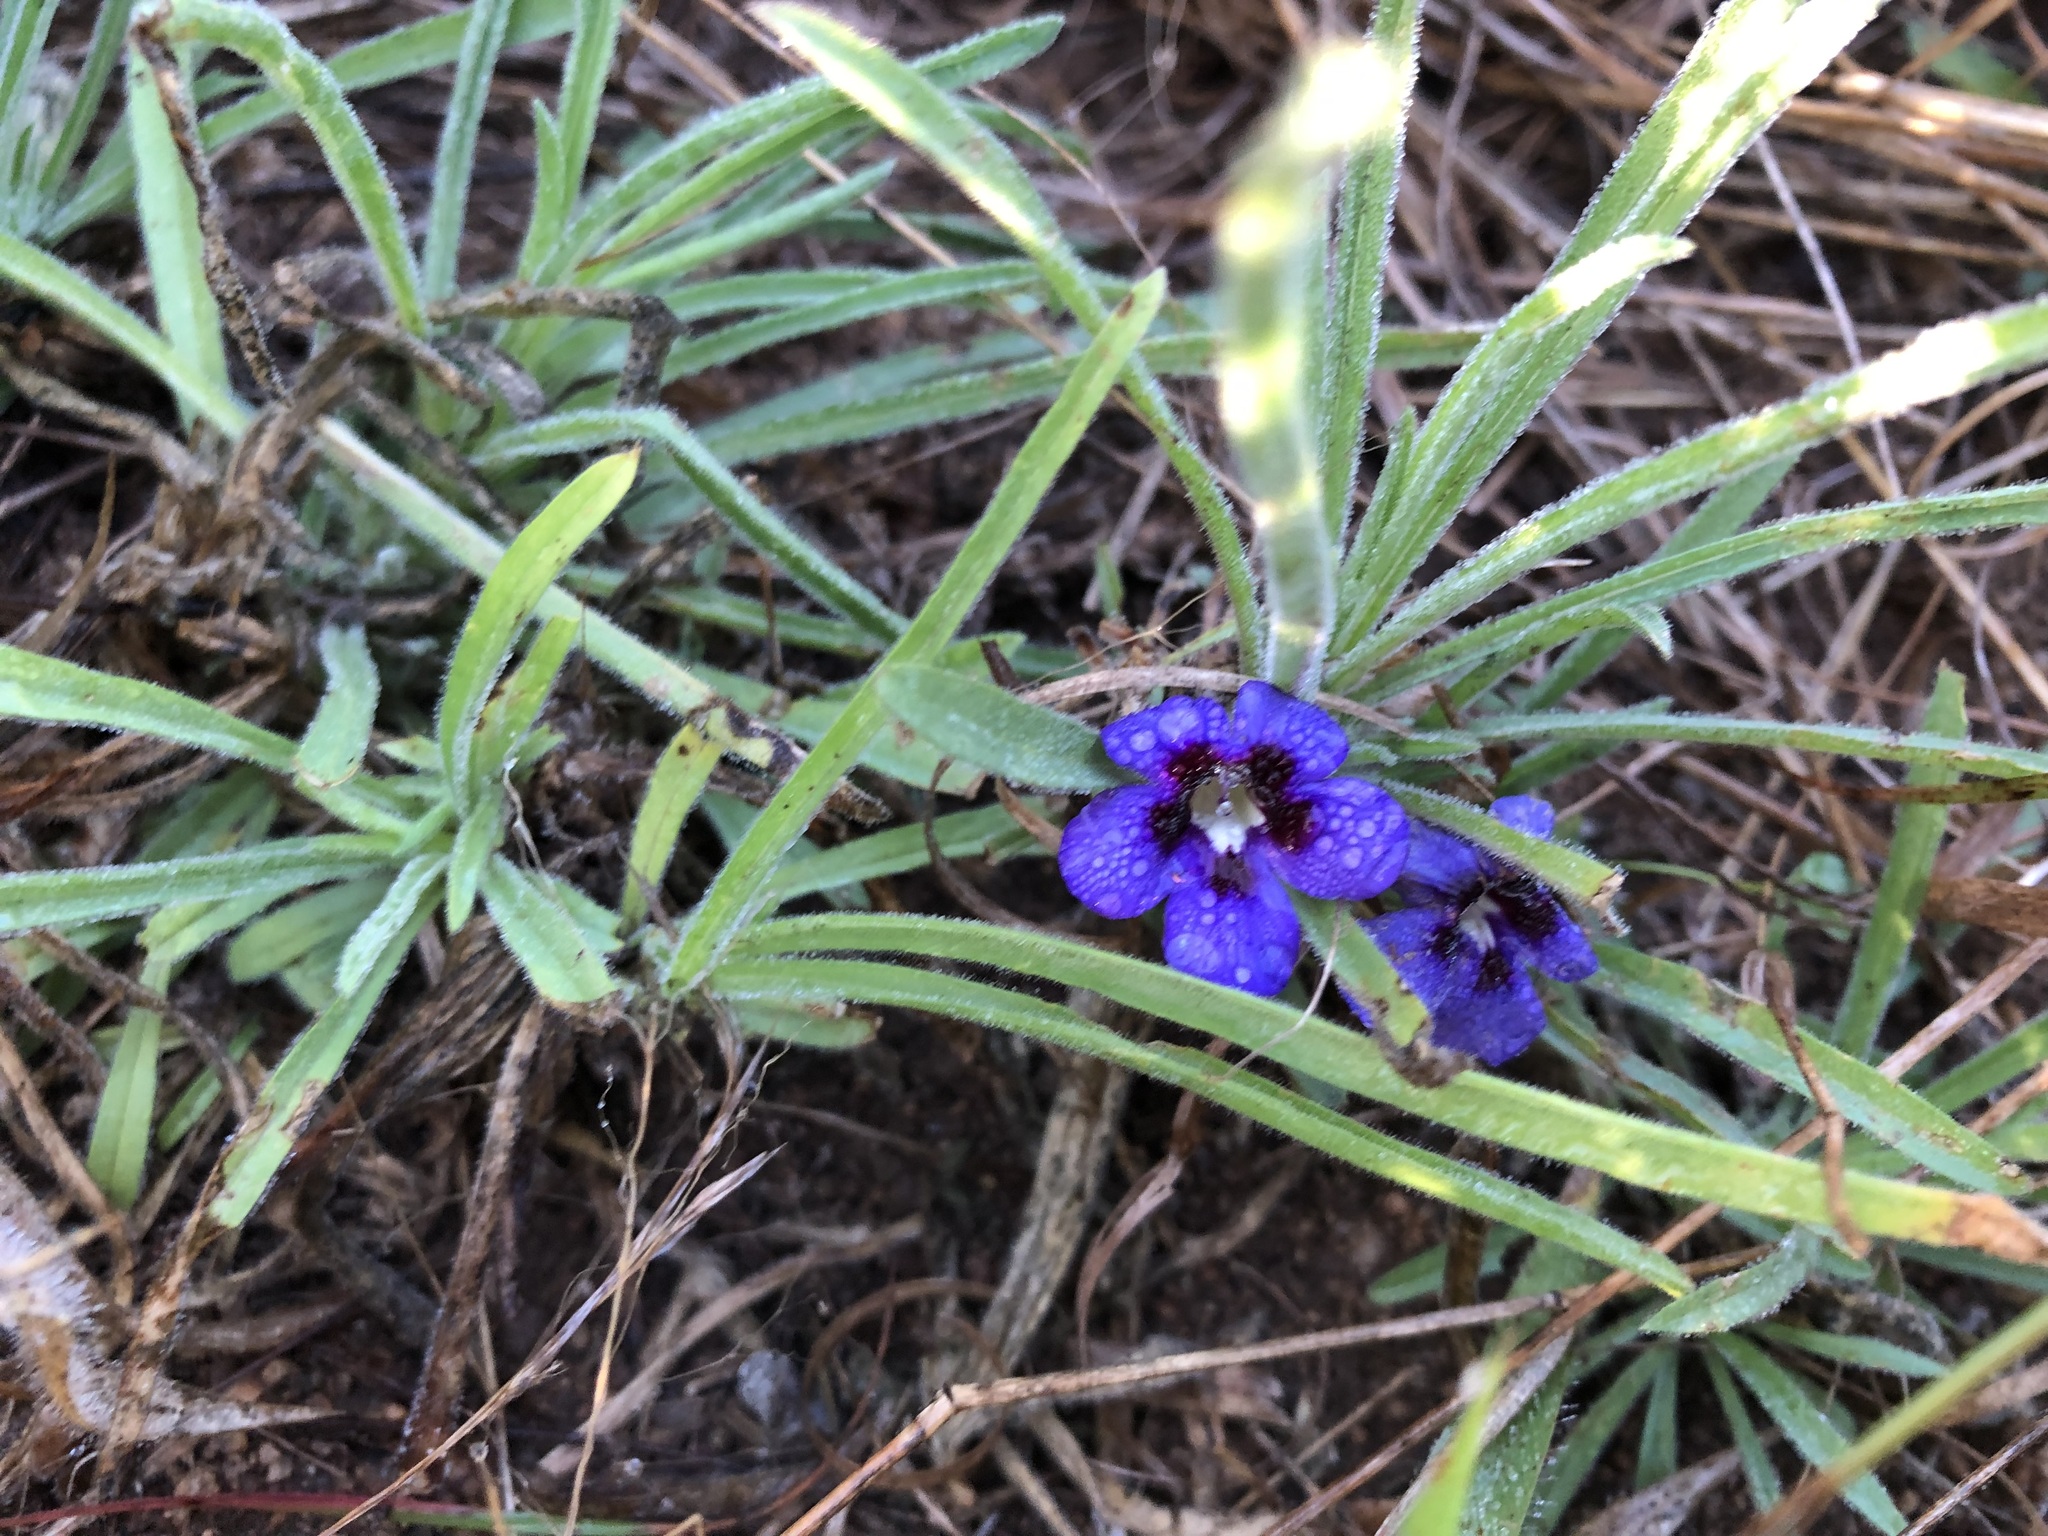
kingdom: Plantae
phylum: Tracheophyta
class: Magnoliopsida
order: Lamiales
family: Scrophulariaceae
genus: Aptosimum
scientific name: Aptosimum lineare
